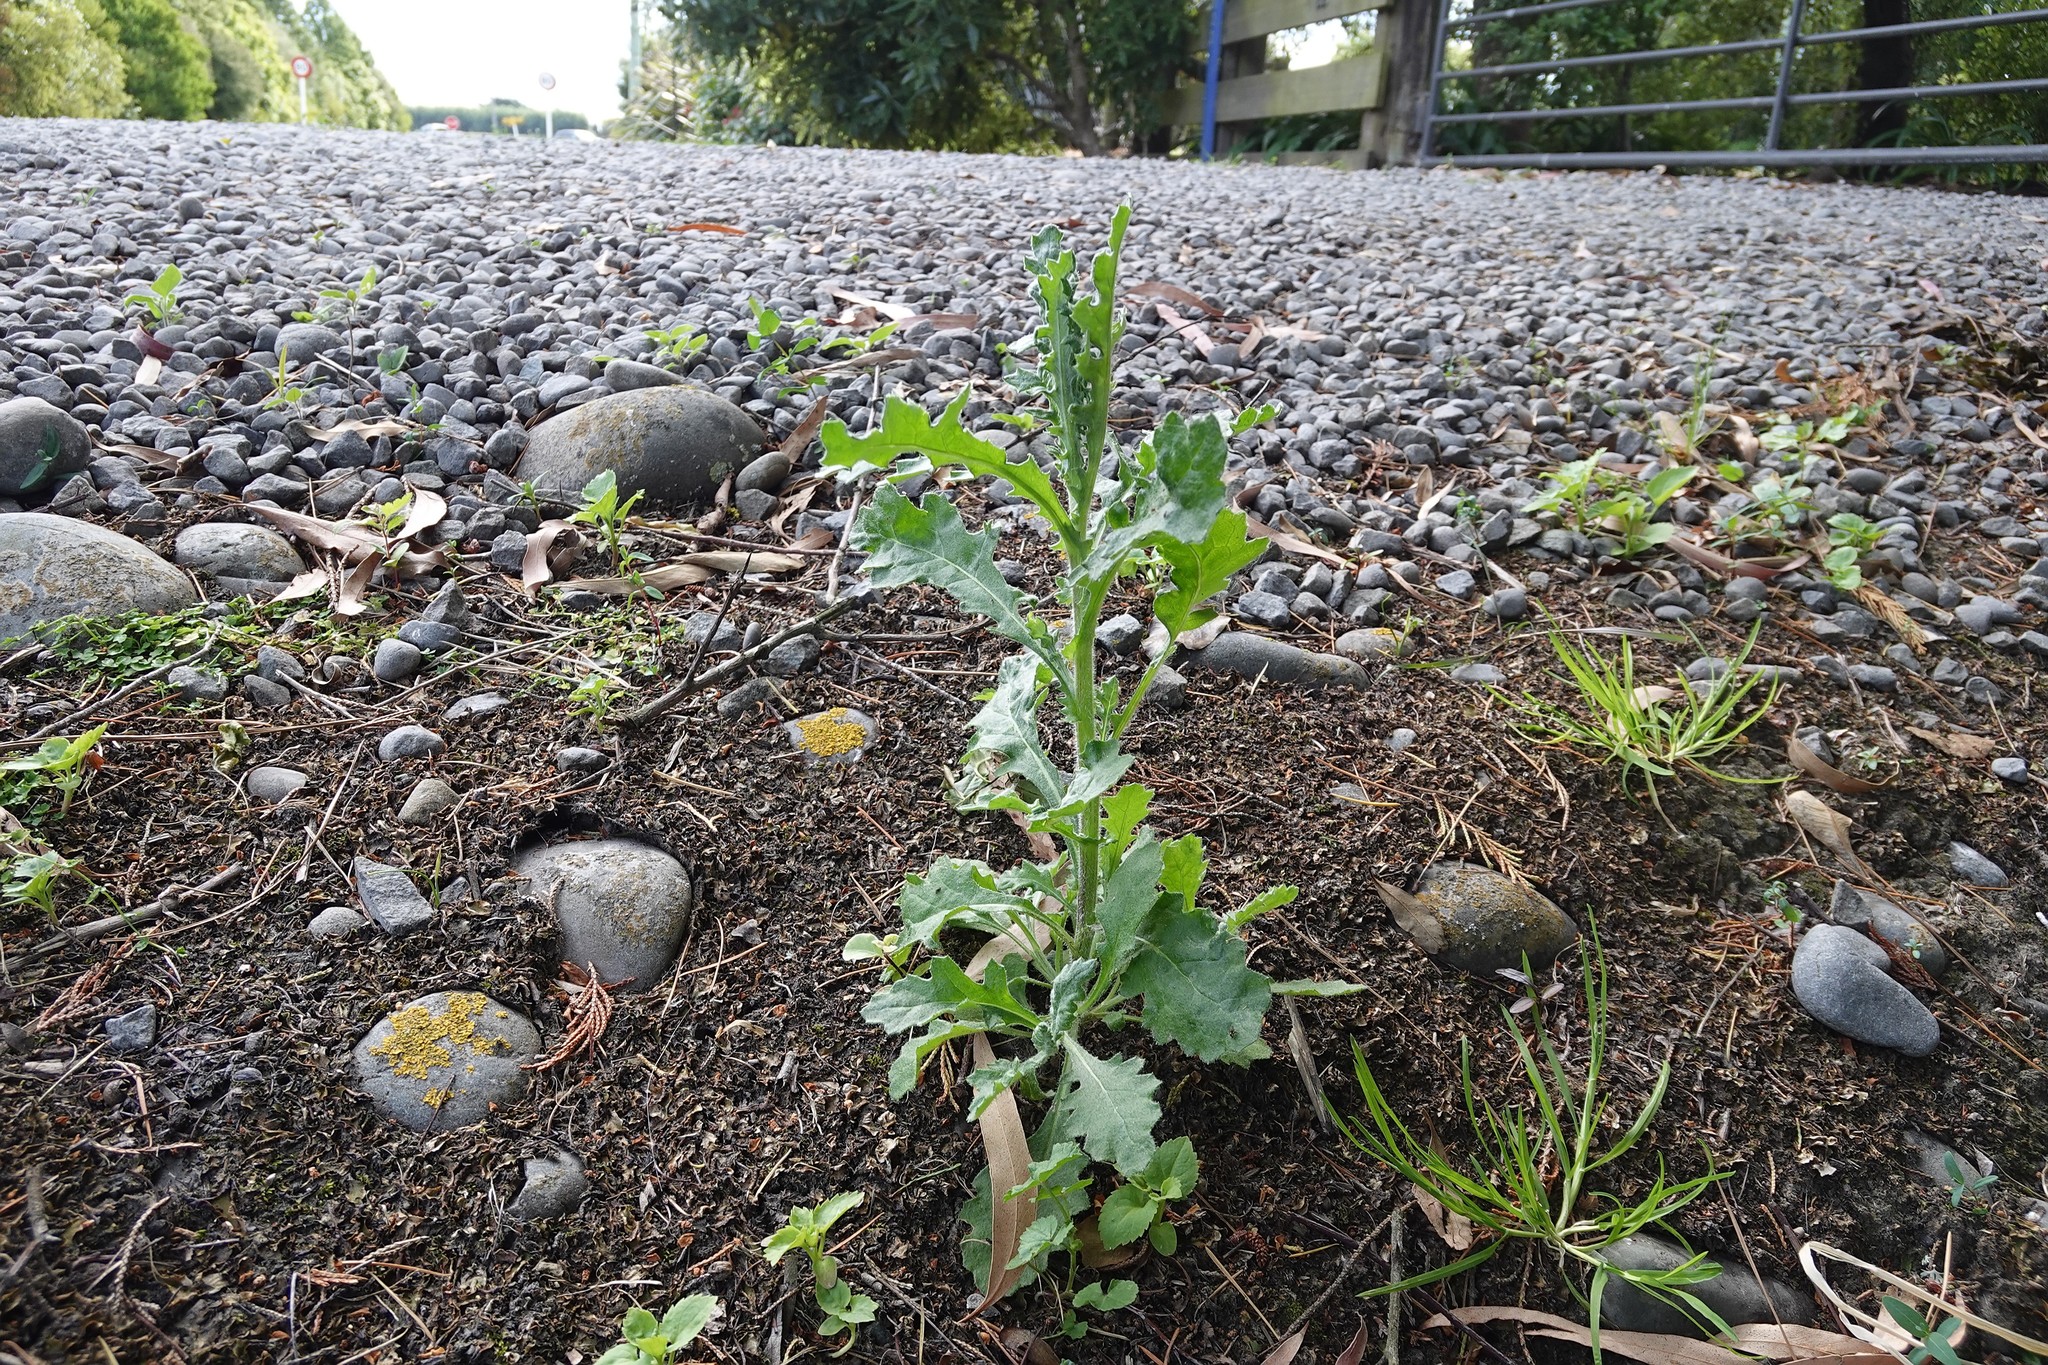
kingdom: Plantae
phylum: Tracheophyta
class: Magnoliopsida
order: Asterales
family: Asteraceae
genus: Senecio
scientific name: Senecio glomeratus
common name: Cutleaf burnweed
